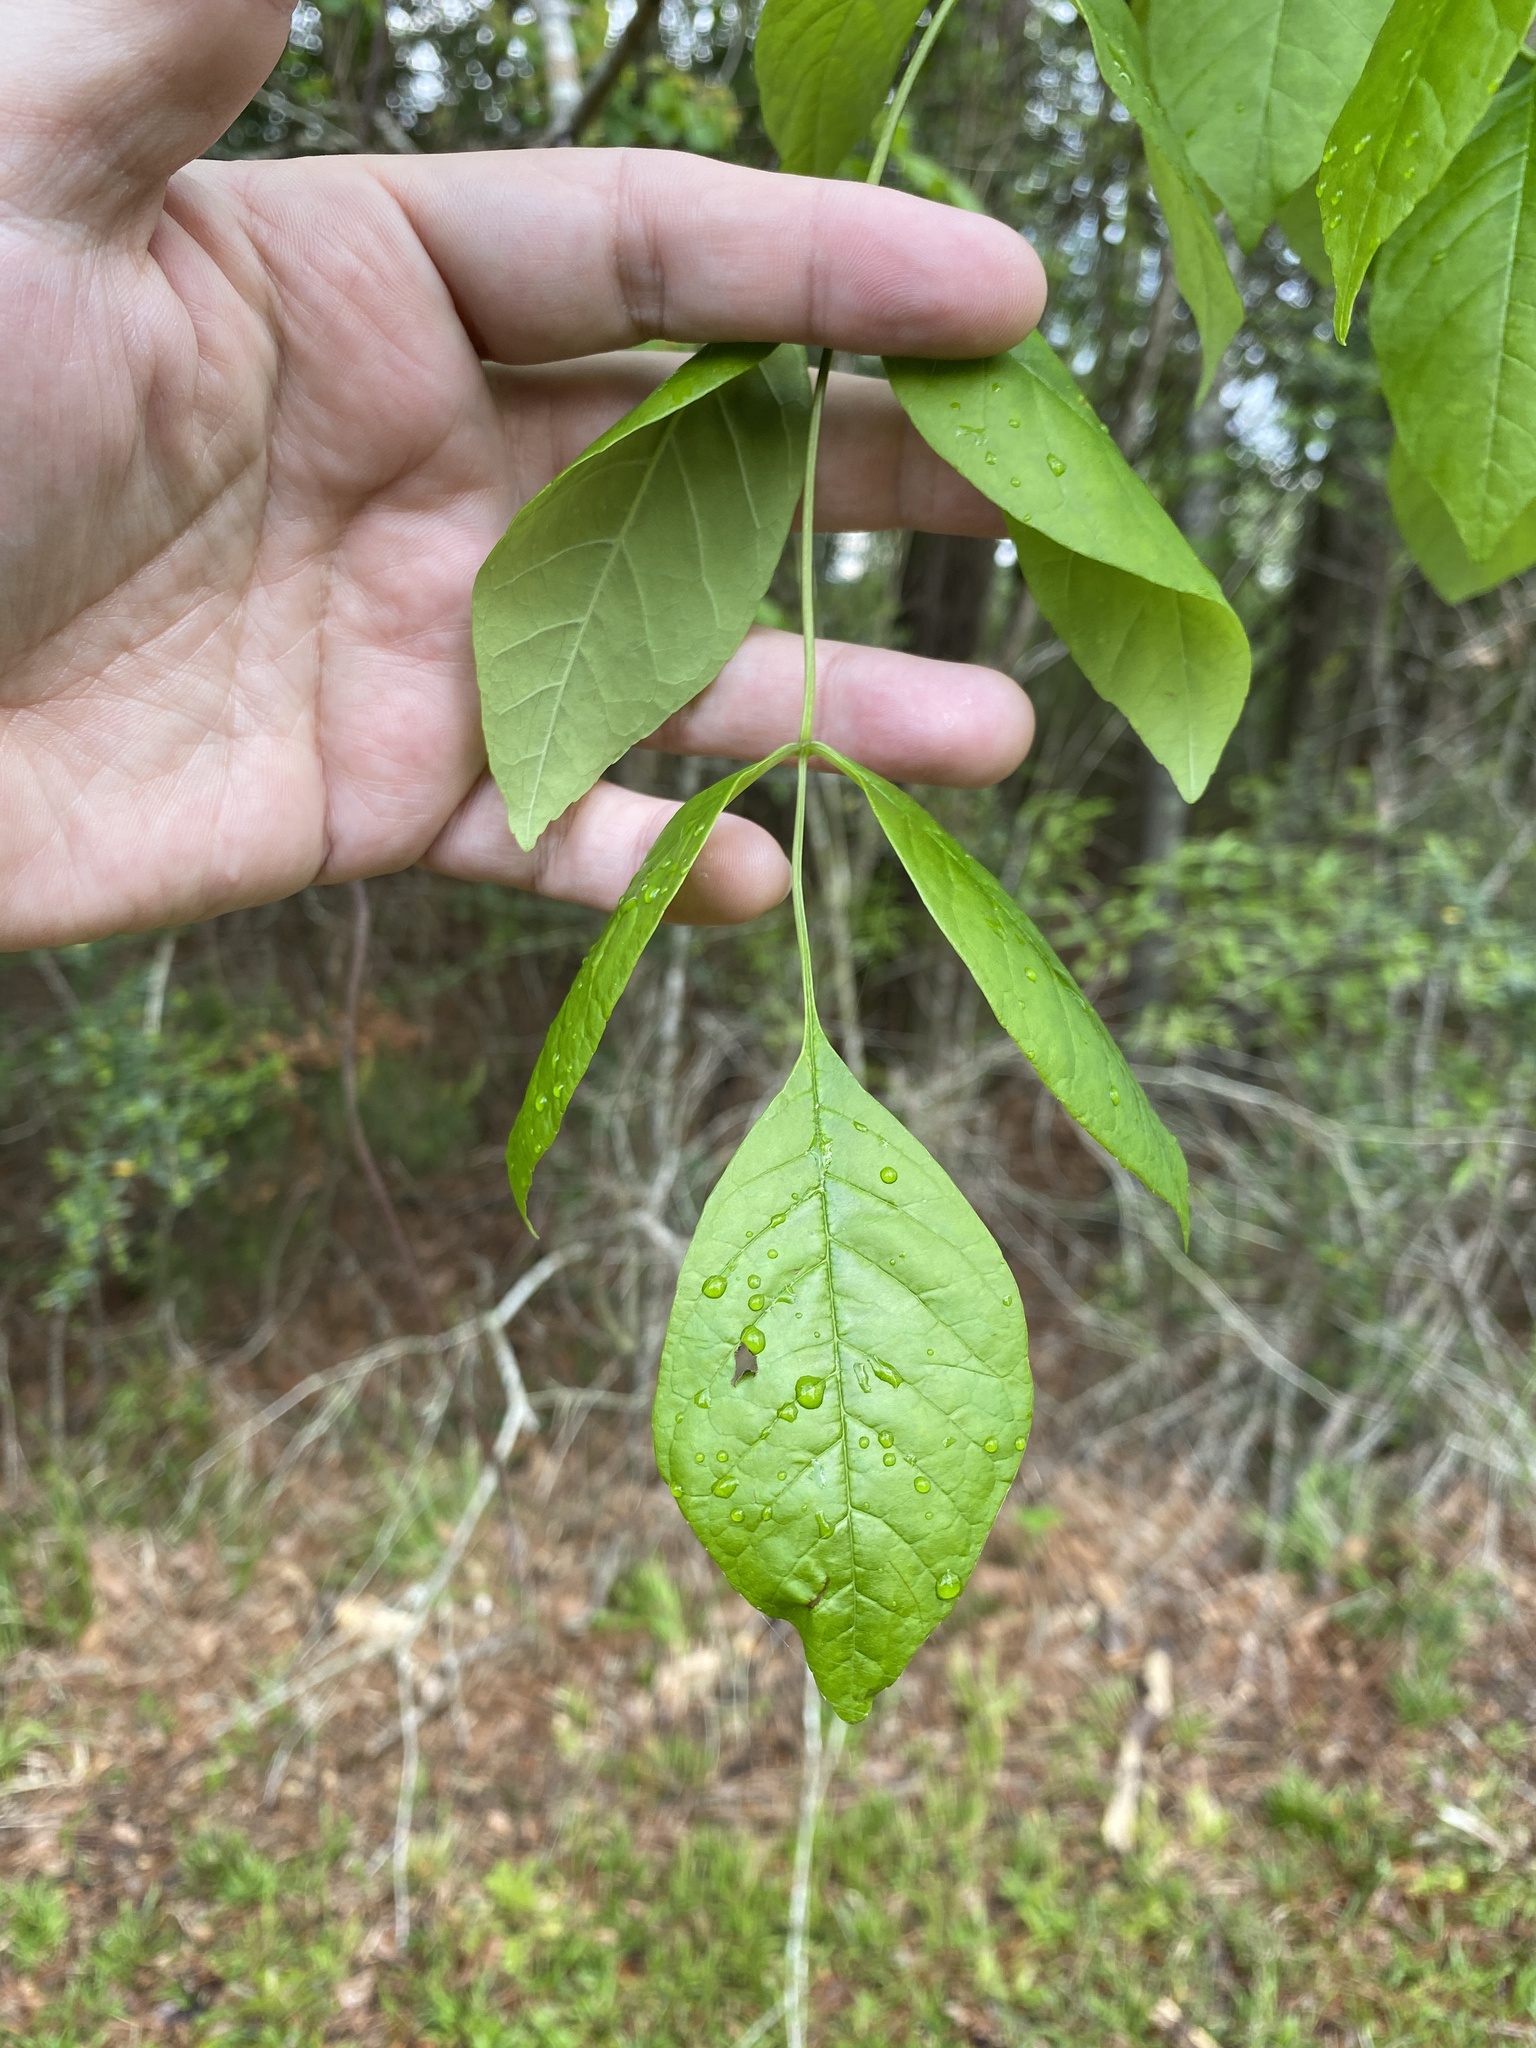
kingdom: Plantae
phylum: Tracheophyta
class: Magnoliopsida
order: Lamiales
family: Oleaceae
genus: Fraxinus
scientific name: Fraxinus caroliniana
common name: Carolina ash
